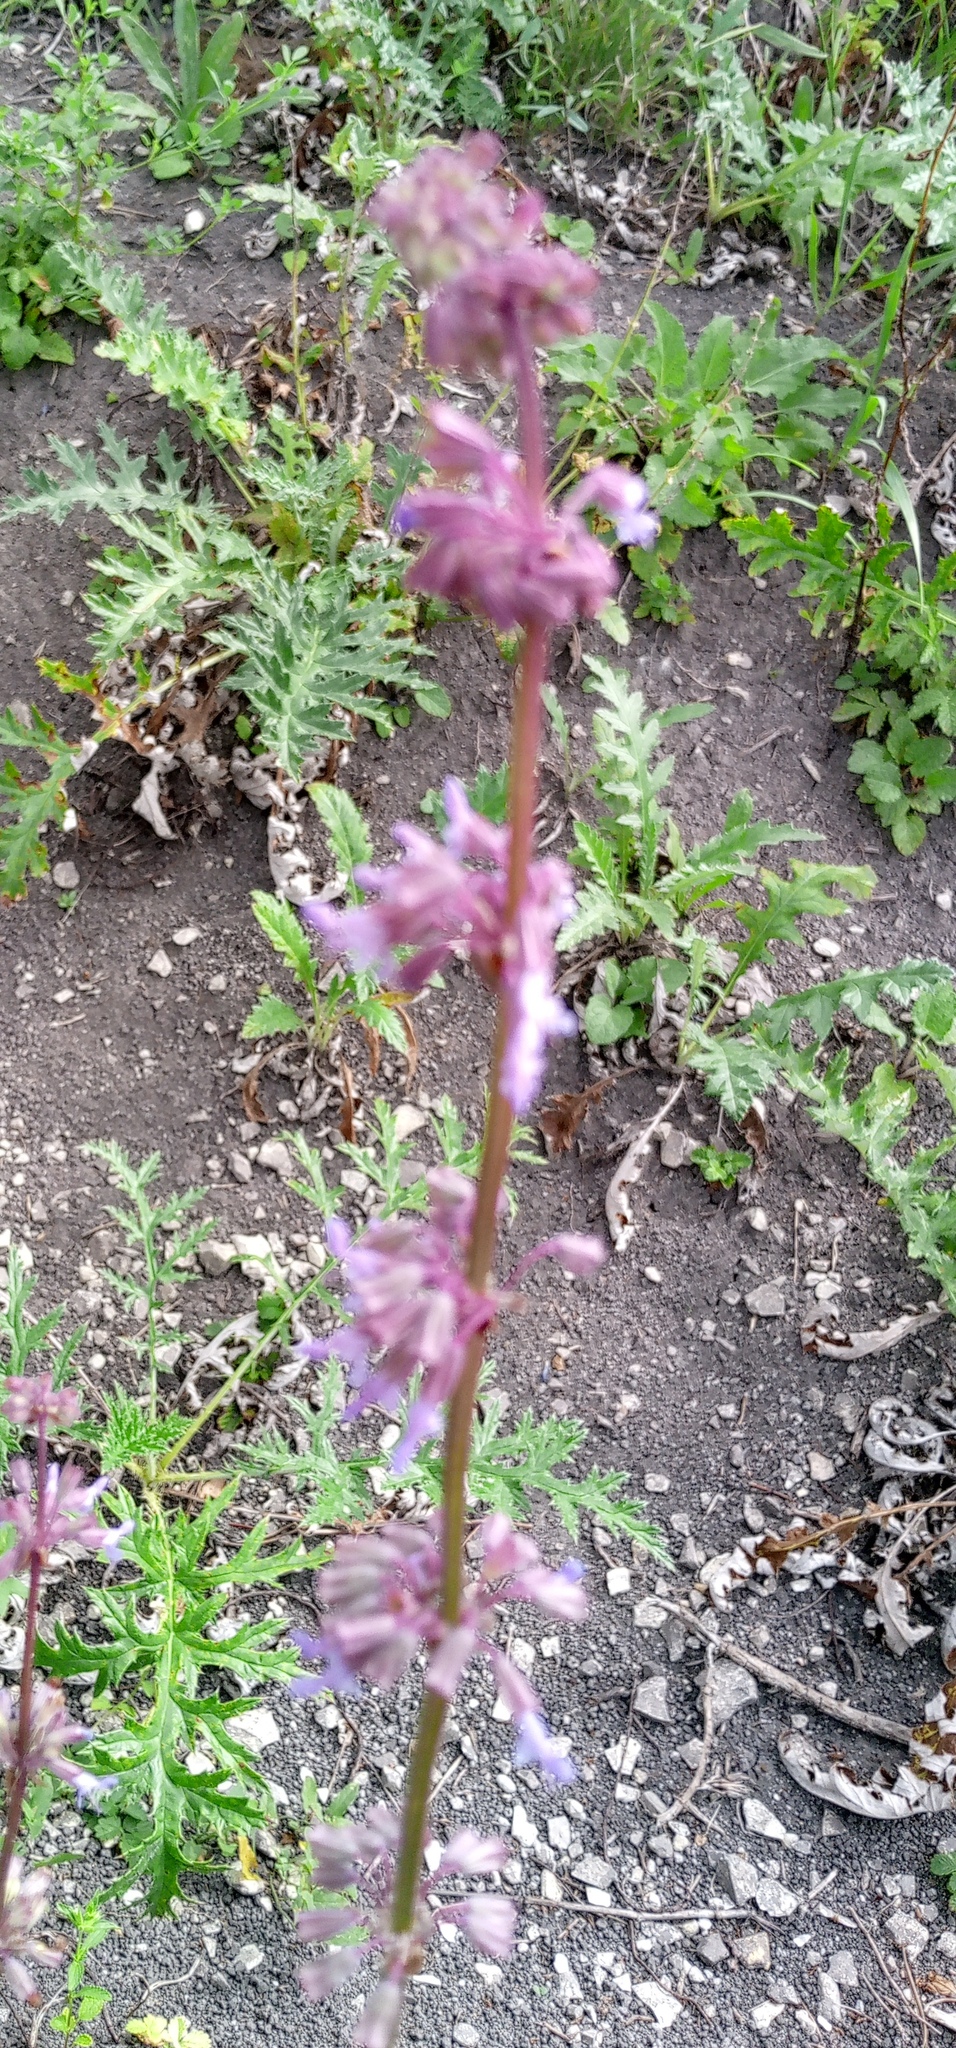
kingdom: Plantae
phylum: Tracheophyta
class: Magnoliopsida
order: Lamiales
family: Lamiaceae
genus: Salvia
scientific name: Salvia verticillata
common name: Whorled clary
